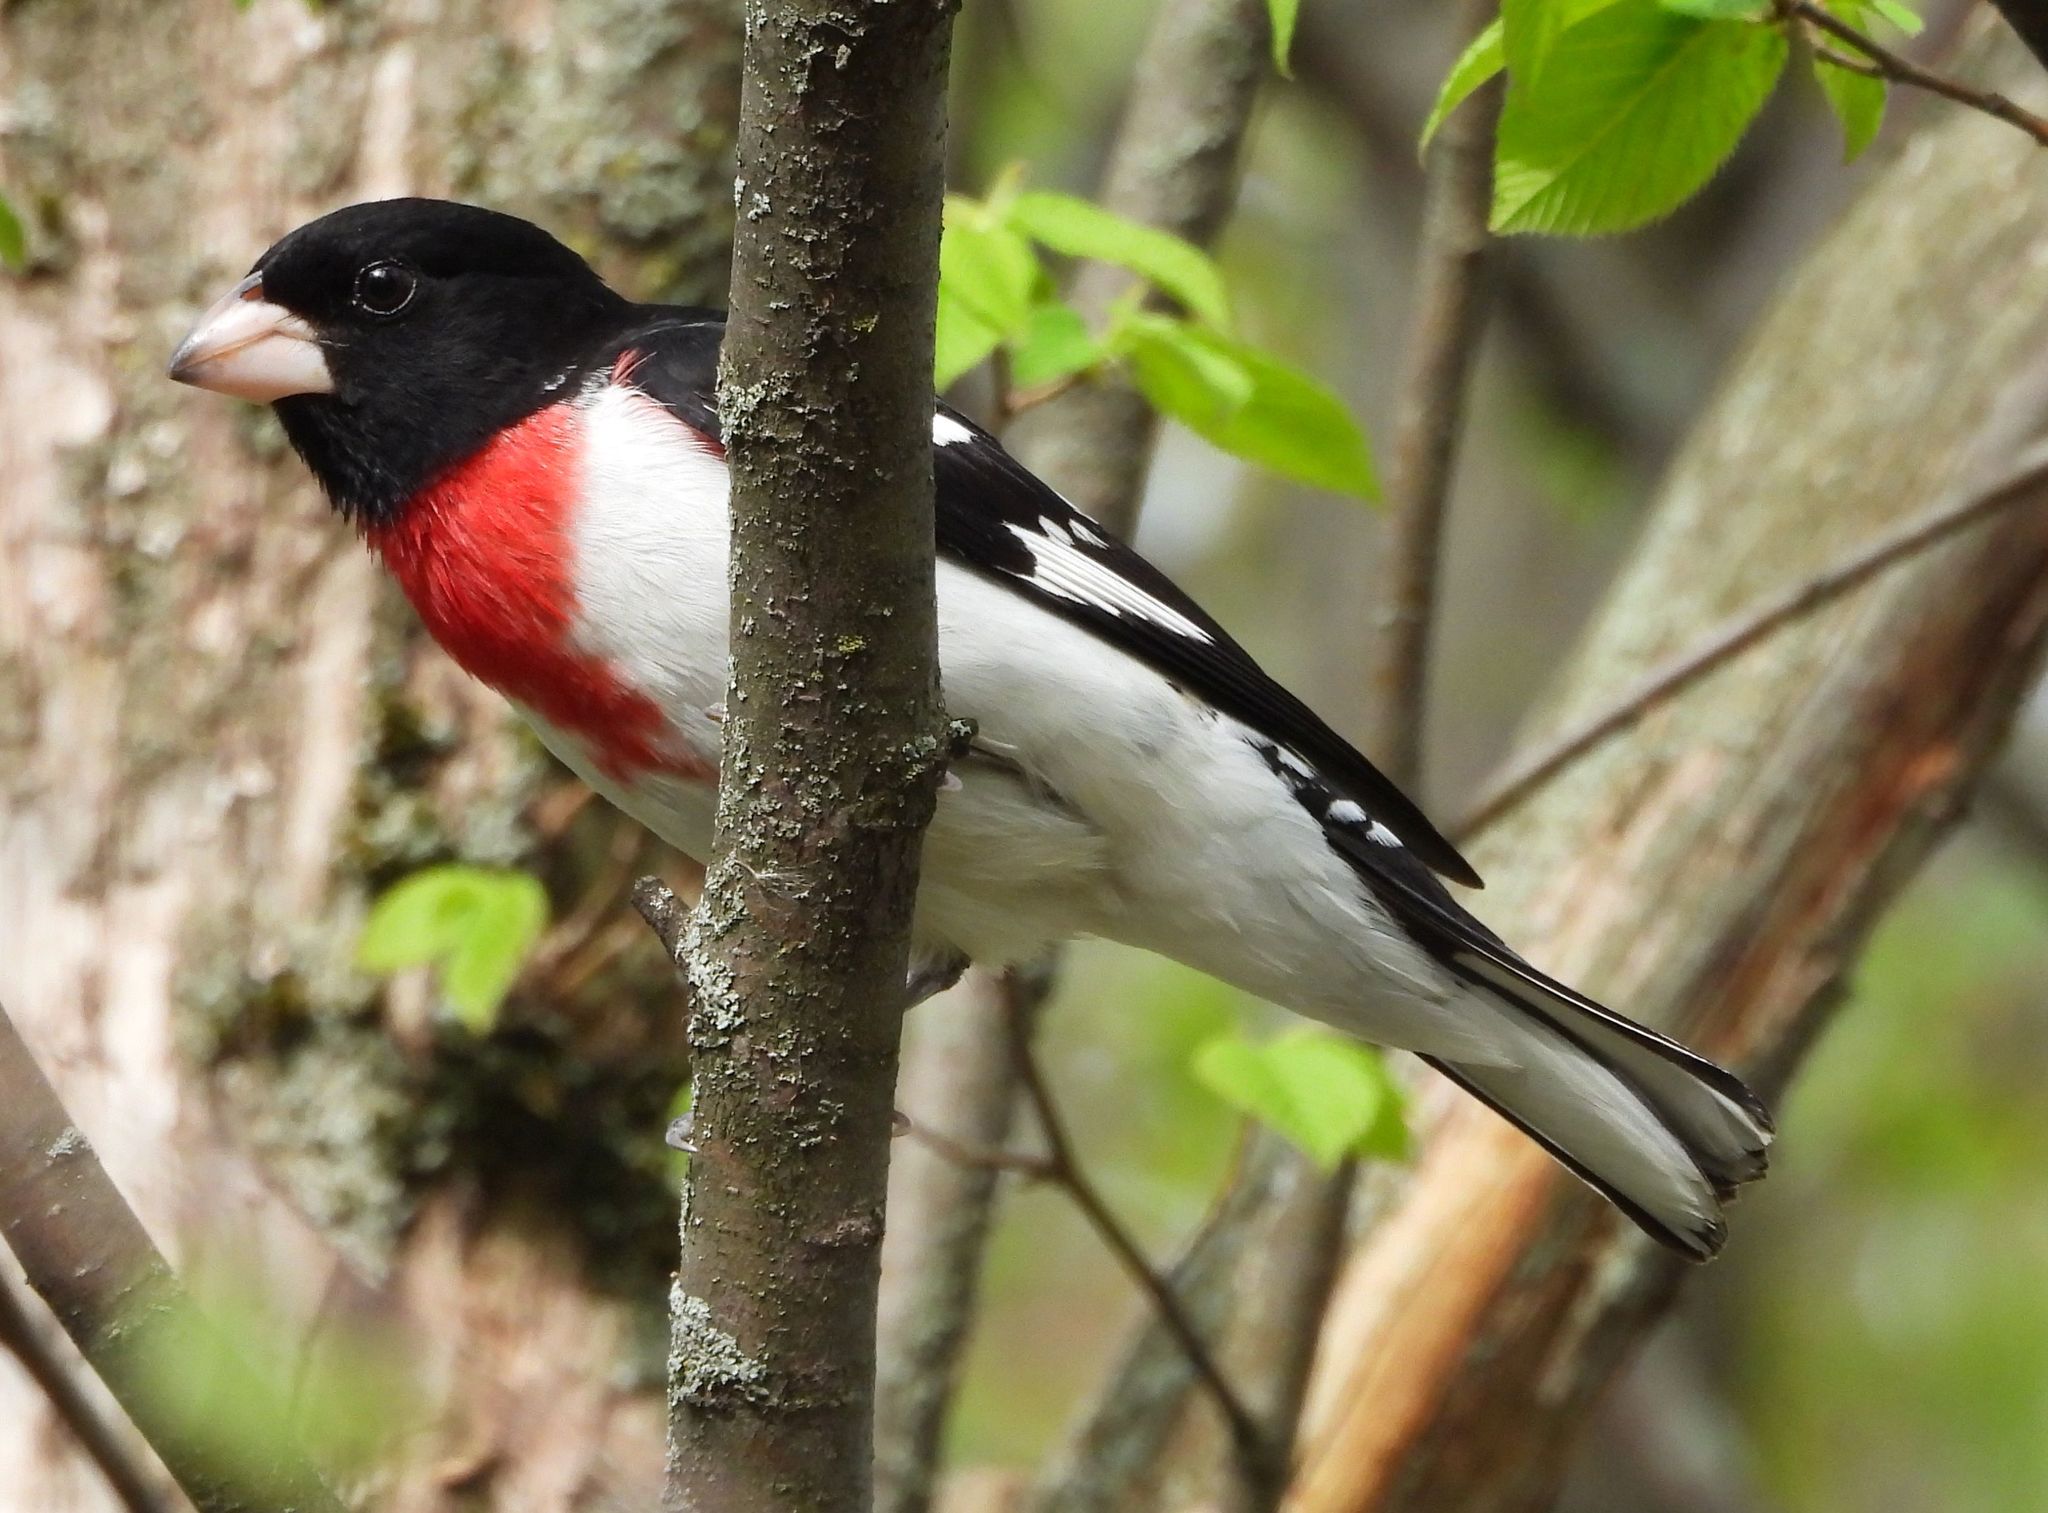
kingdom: Animalia
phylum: Chordata
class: Aves
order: Passeriformes
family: Cardinalidae
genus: Pheucticus
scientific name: Pheucticus ludovicianus
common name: Rose-breasted grosbeak
